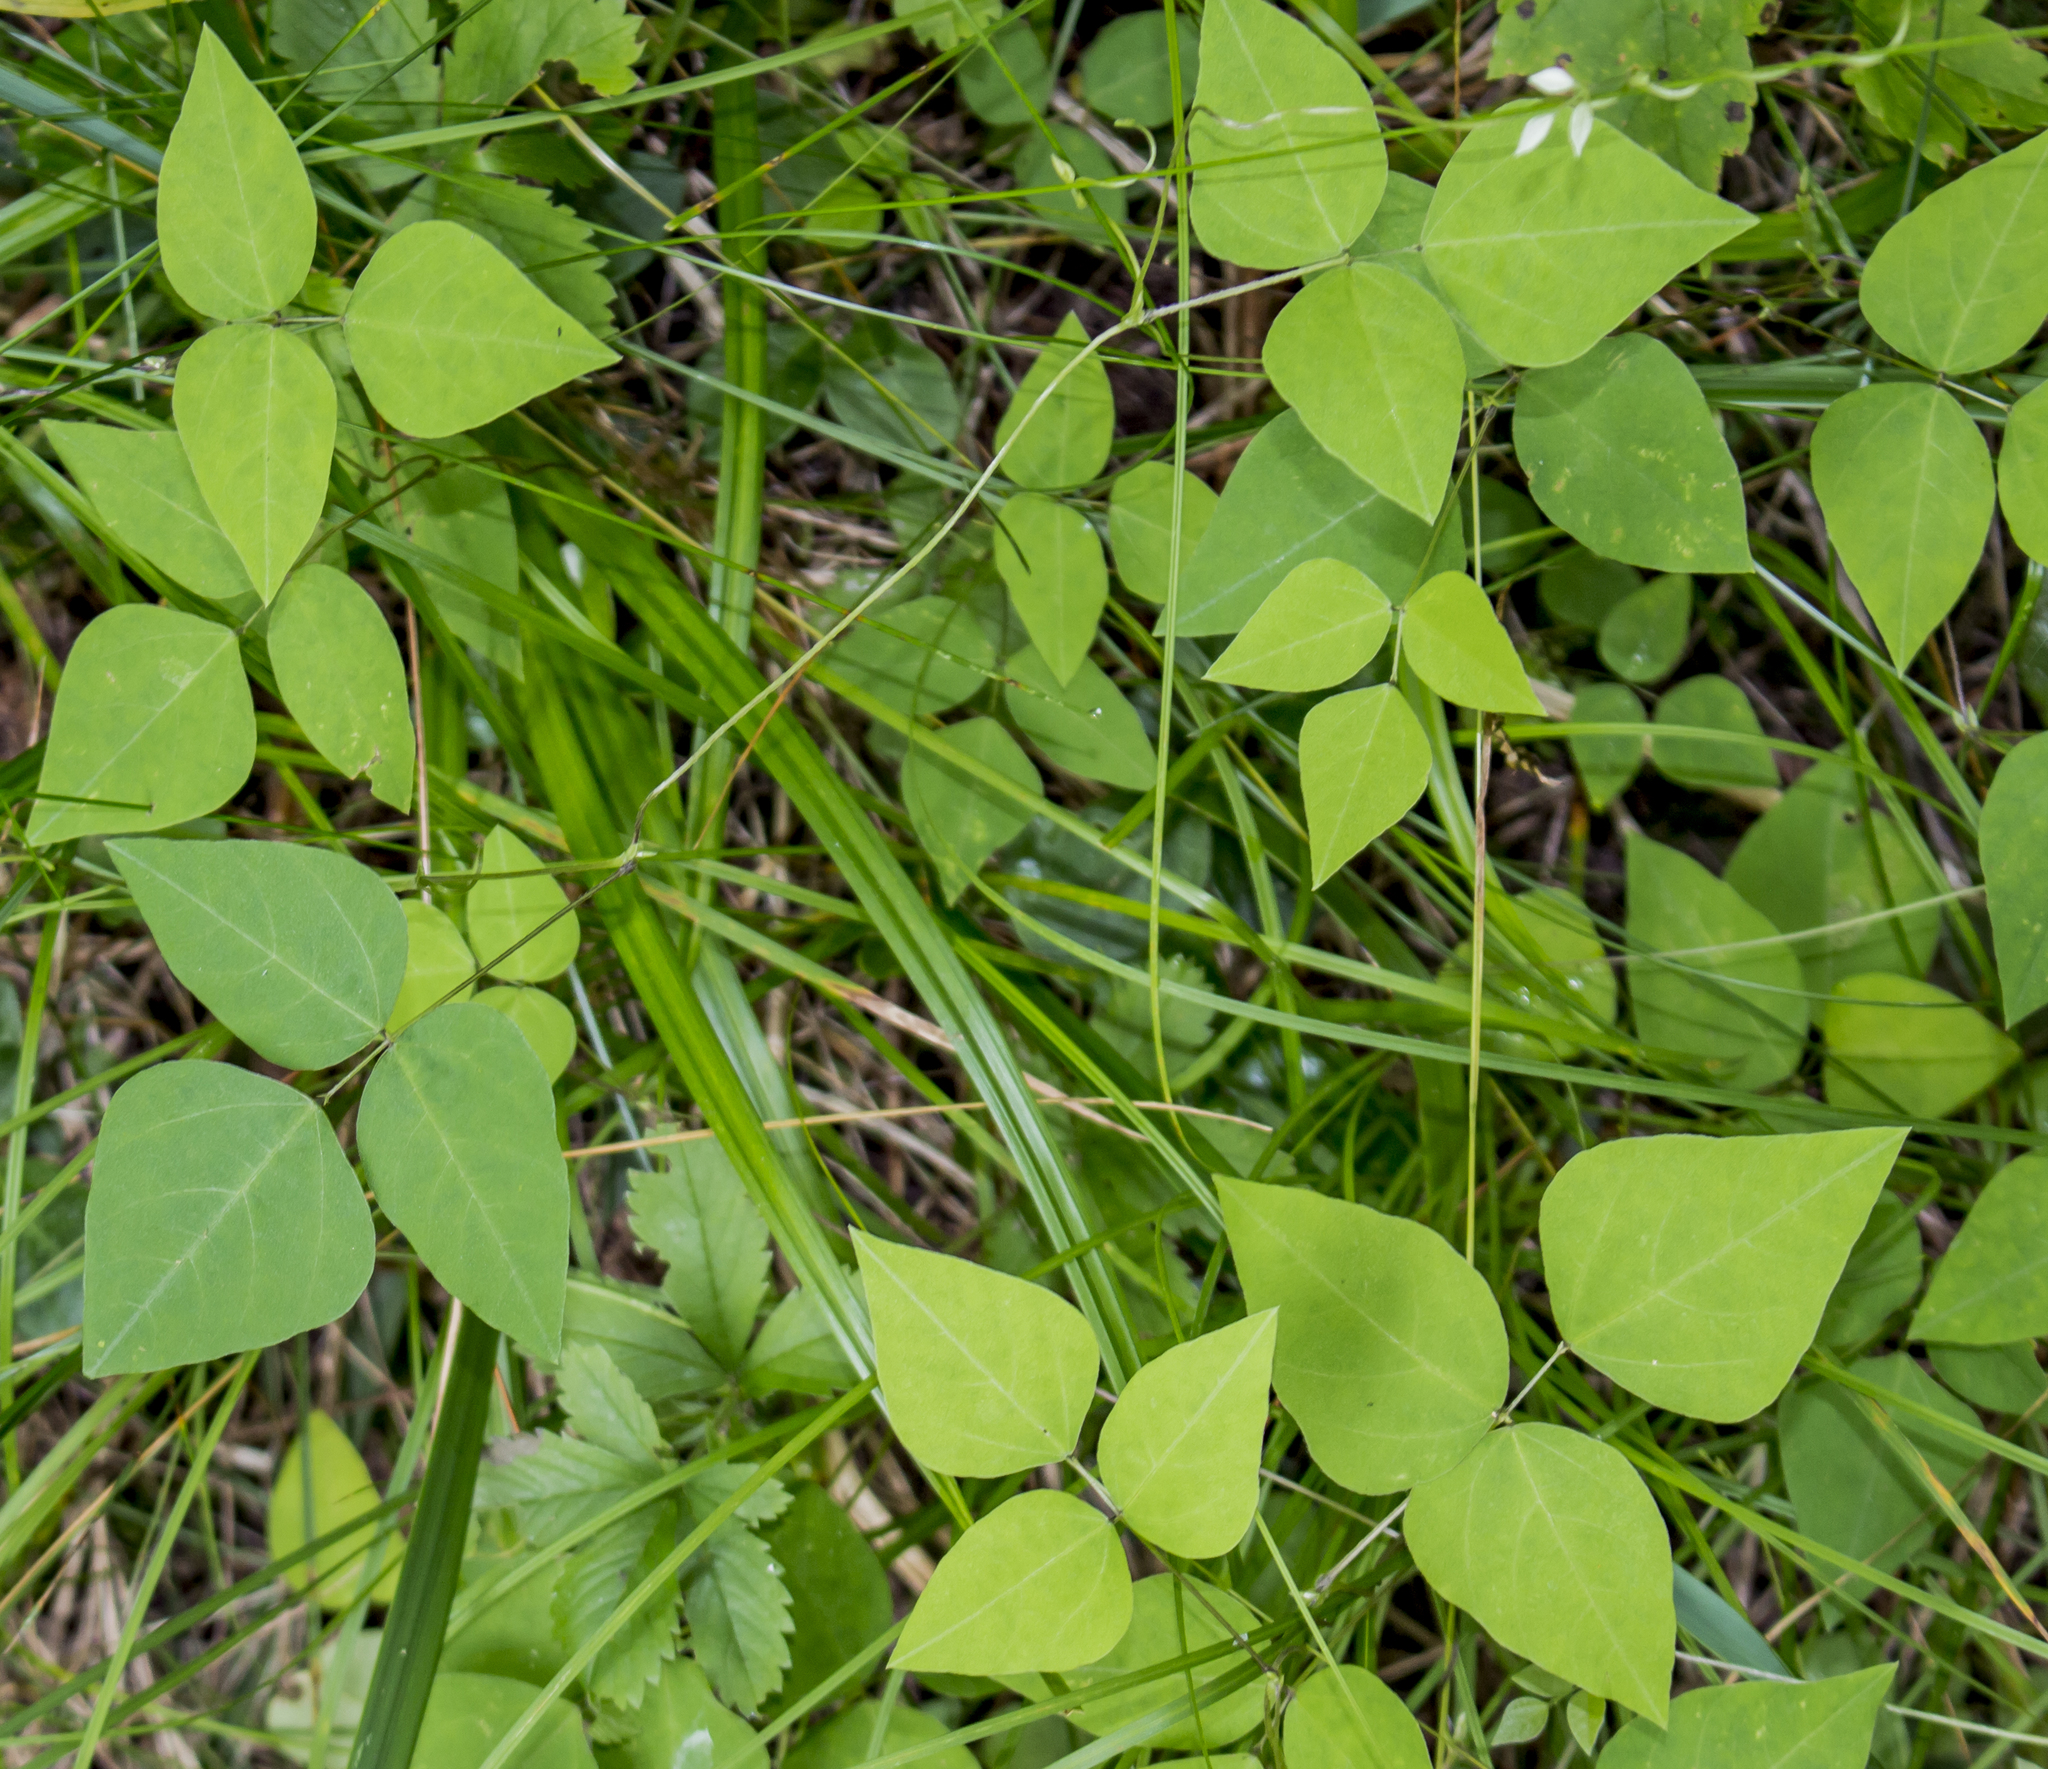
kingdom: Plantae
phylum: Tracheophyta
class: Magnoliopsida
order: Fabales
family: Fabaceae
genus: Amphicarpaea
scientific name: Amphicarpaea bracteata
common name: American hog peanut
